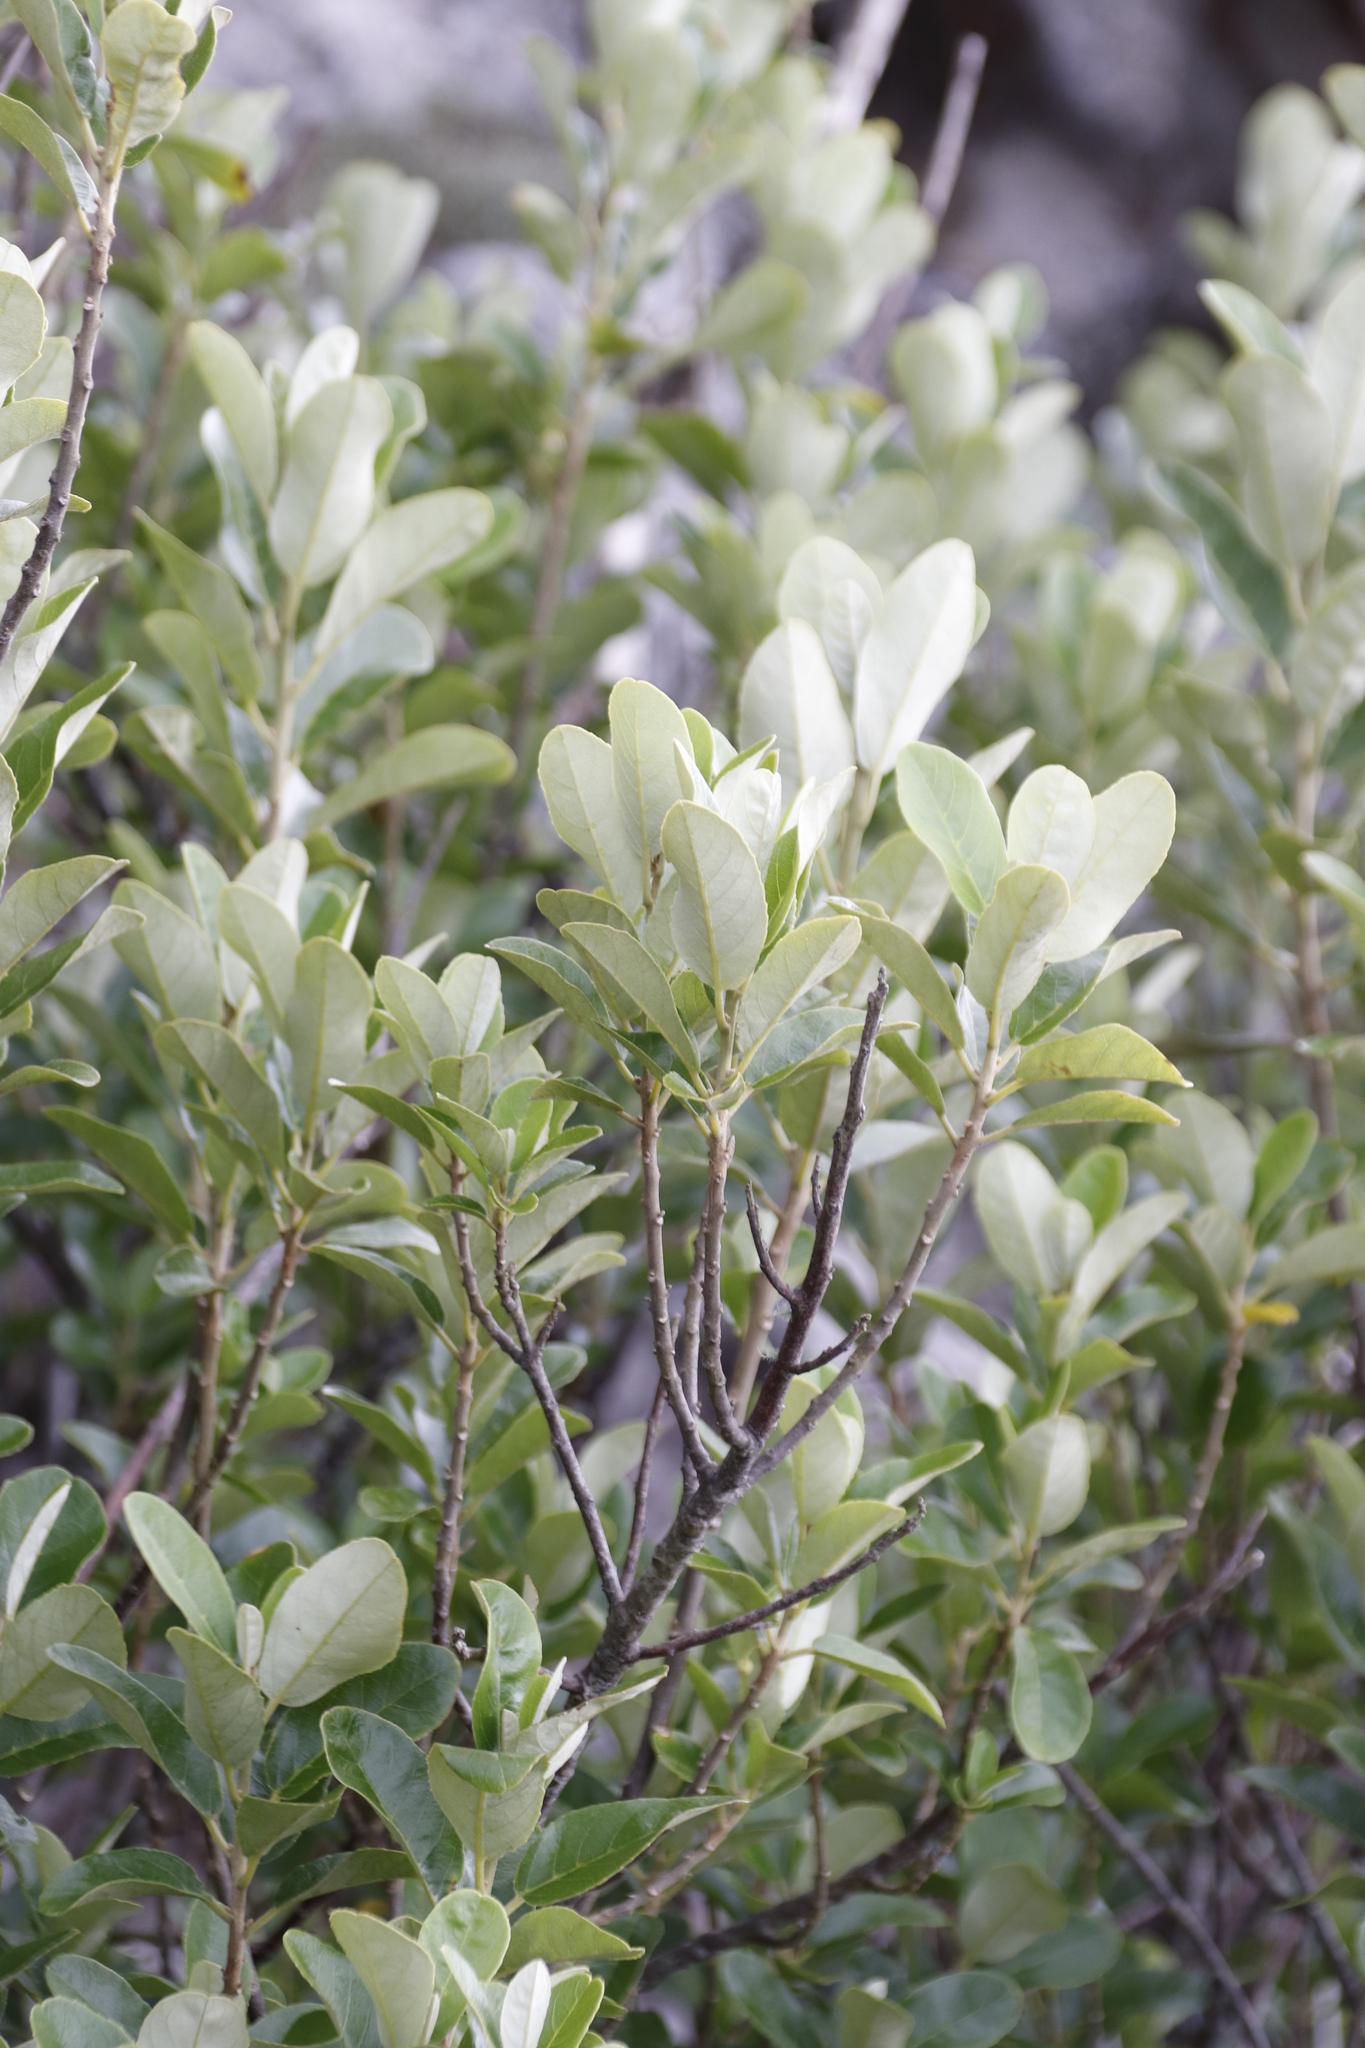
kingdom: Plantae
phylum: Tracheophyta
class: Magnoliopsida
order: Malpighiales
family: Achariaceae
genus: Kiggelaria
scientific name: Kiggelaria africana
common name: Wild peach
